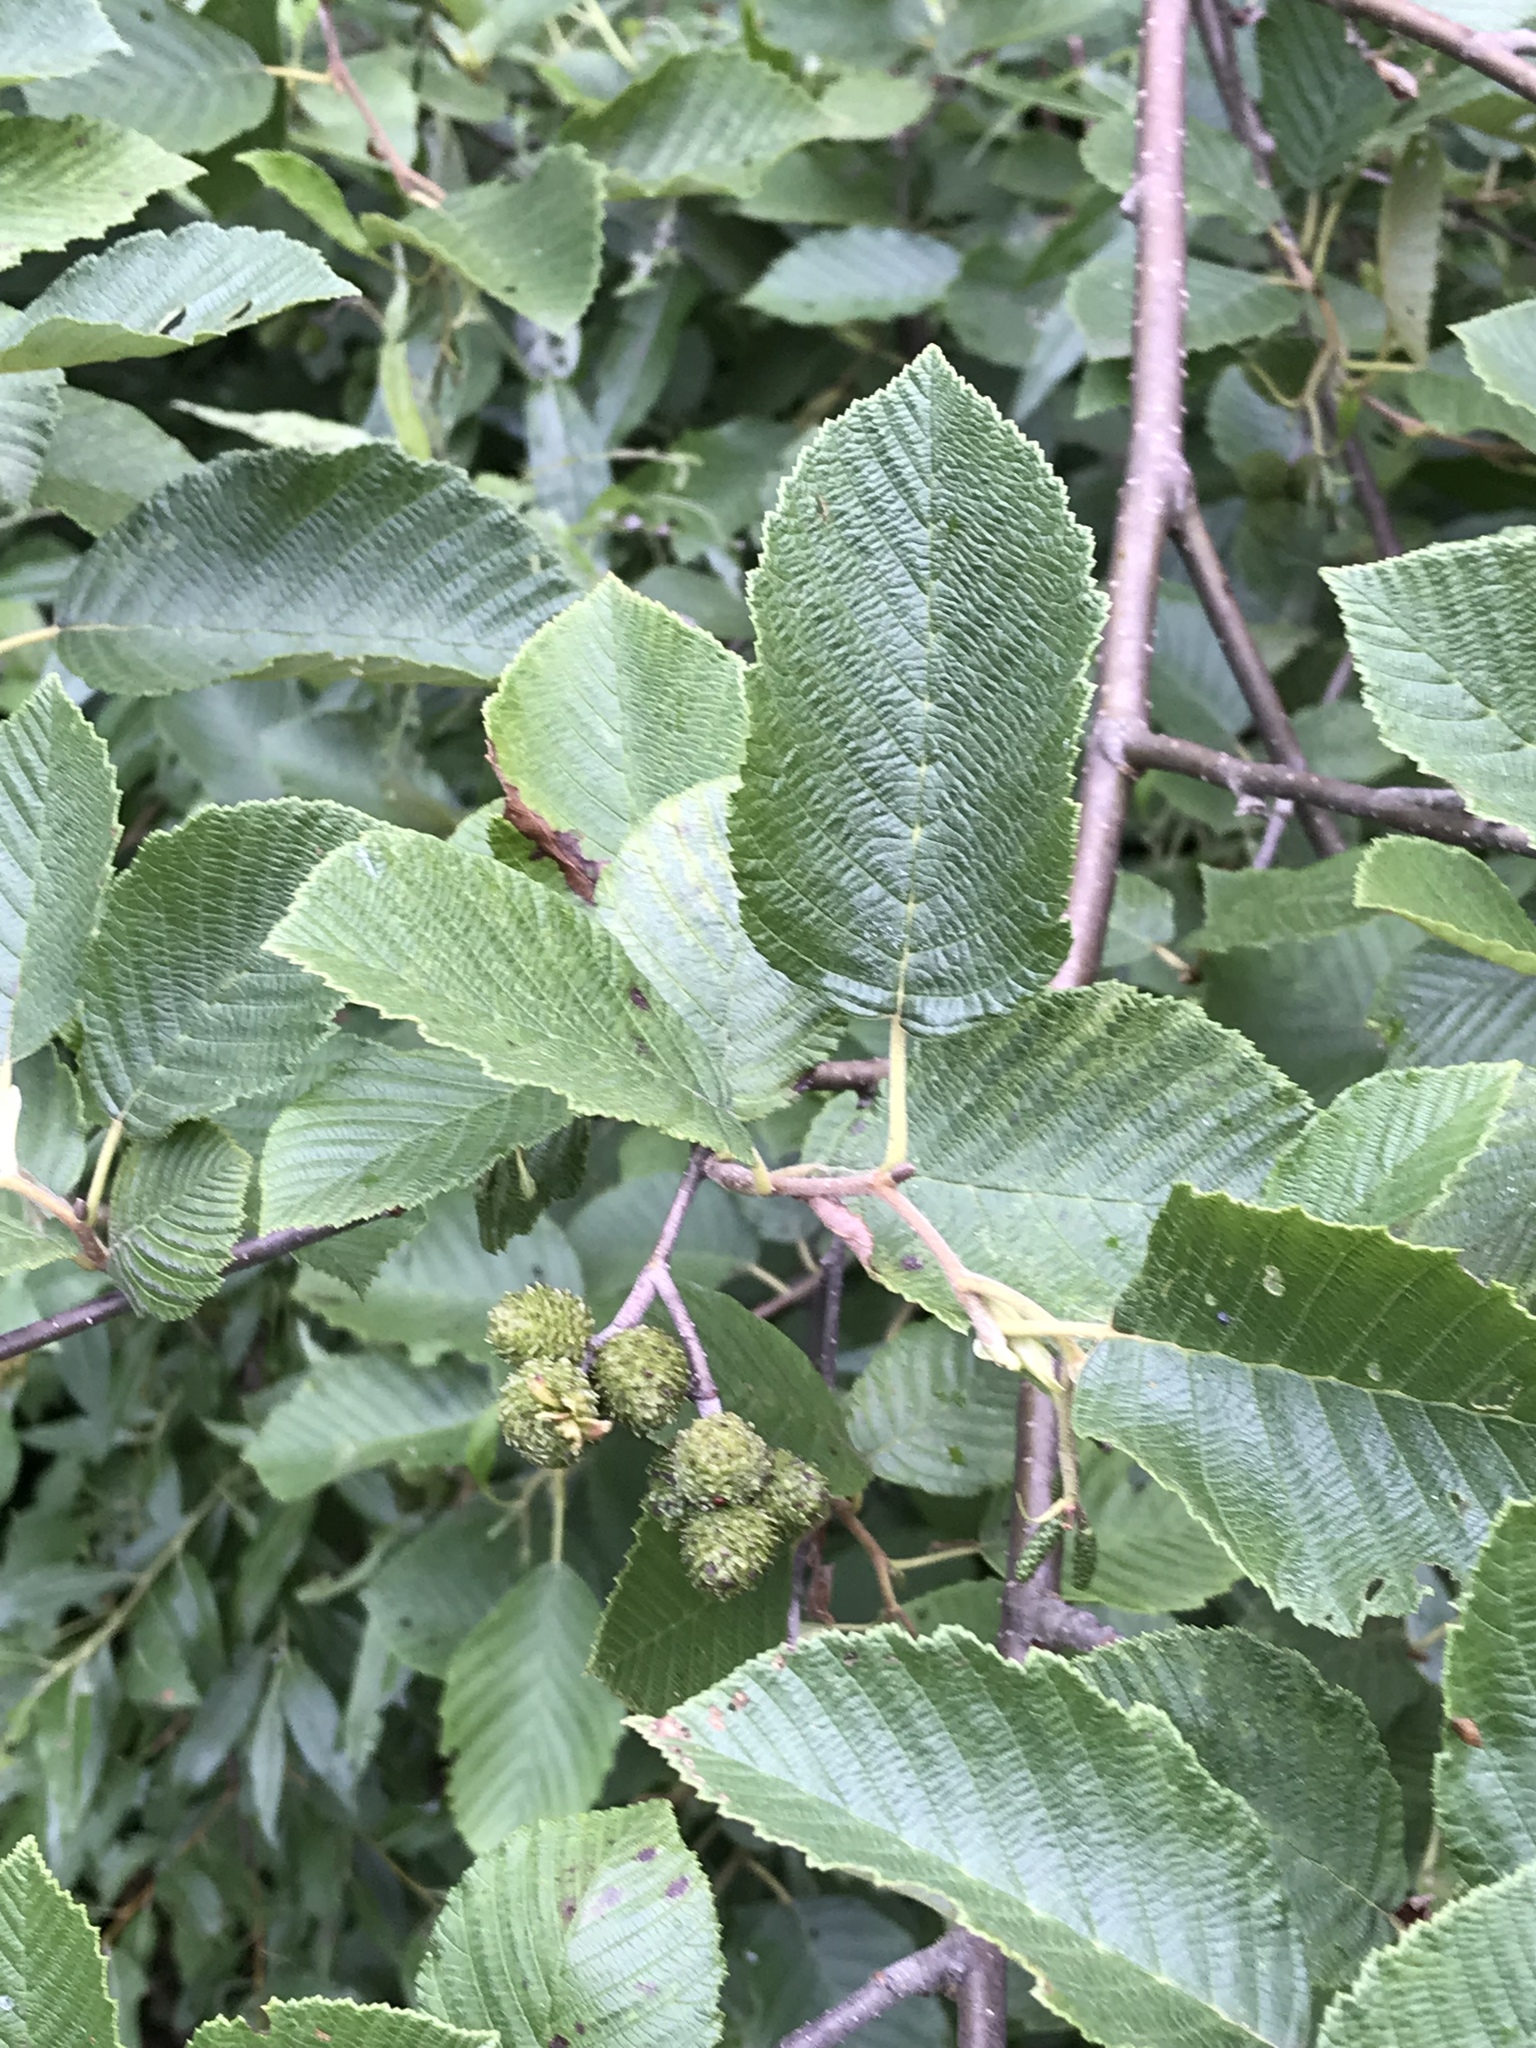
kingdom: Plantae
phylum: Tracheophyta
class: Magnoliopsida
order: Fagales
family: Betulaceae
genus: Alnus
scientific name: Alnus incana
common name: Grey alder
